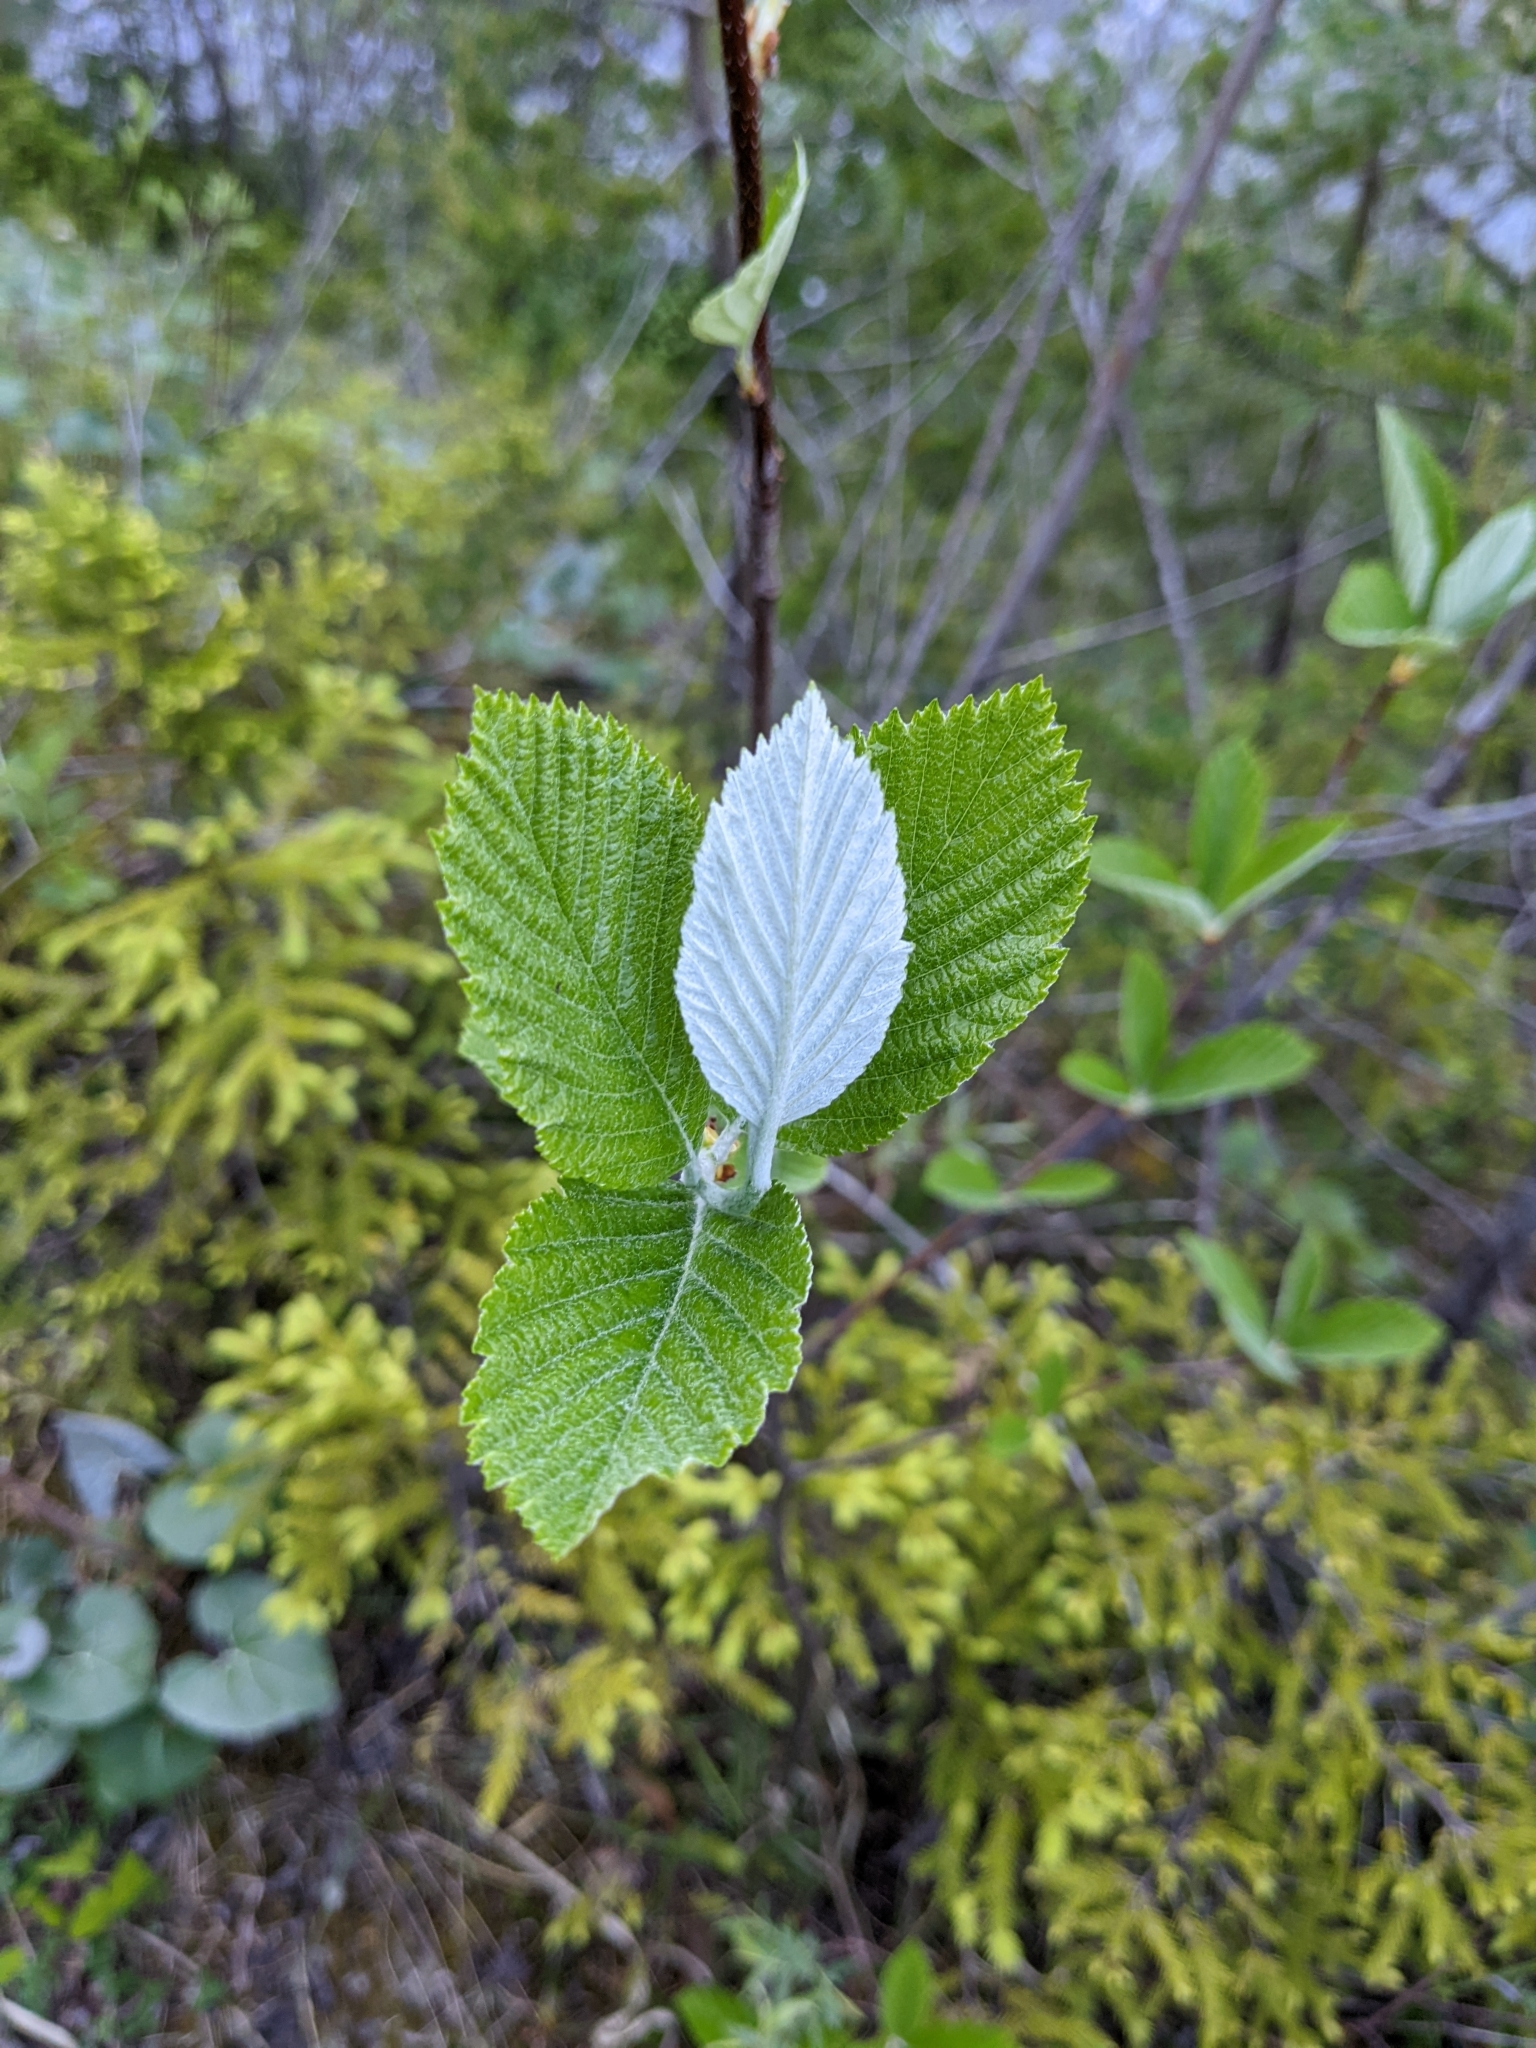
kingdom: Plantae
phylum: Tracheophyta
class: Magnoliopsida
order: Rosales
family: Rosaceae
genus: Aria
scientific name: Aria edulis
